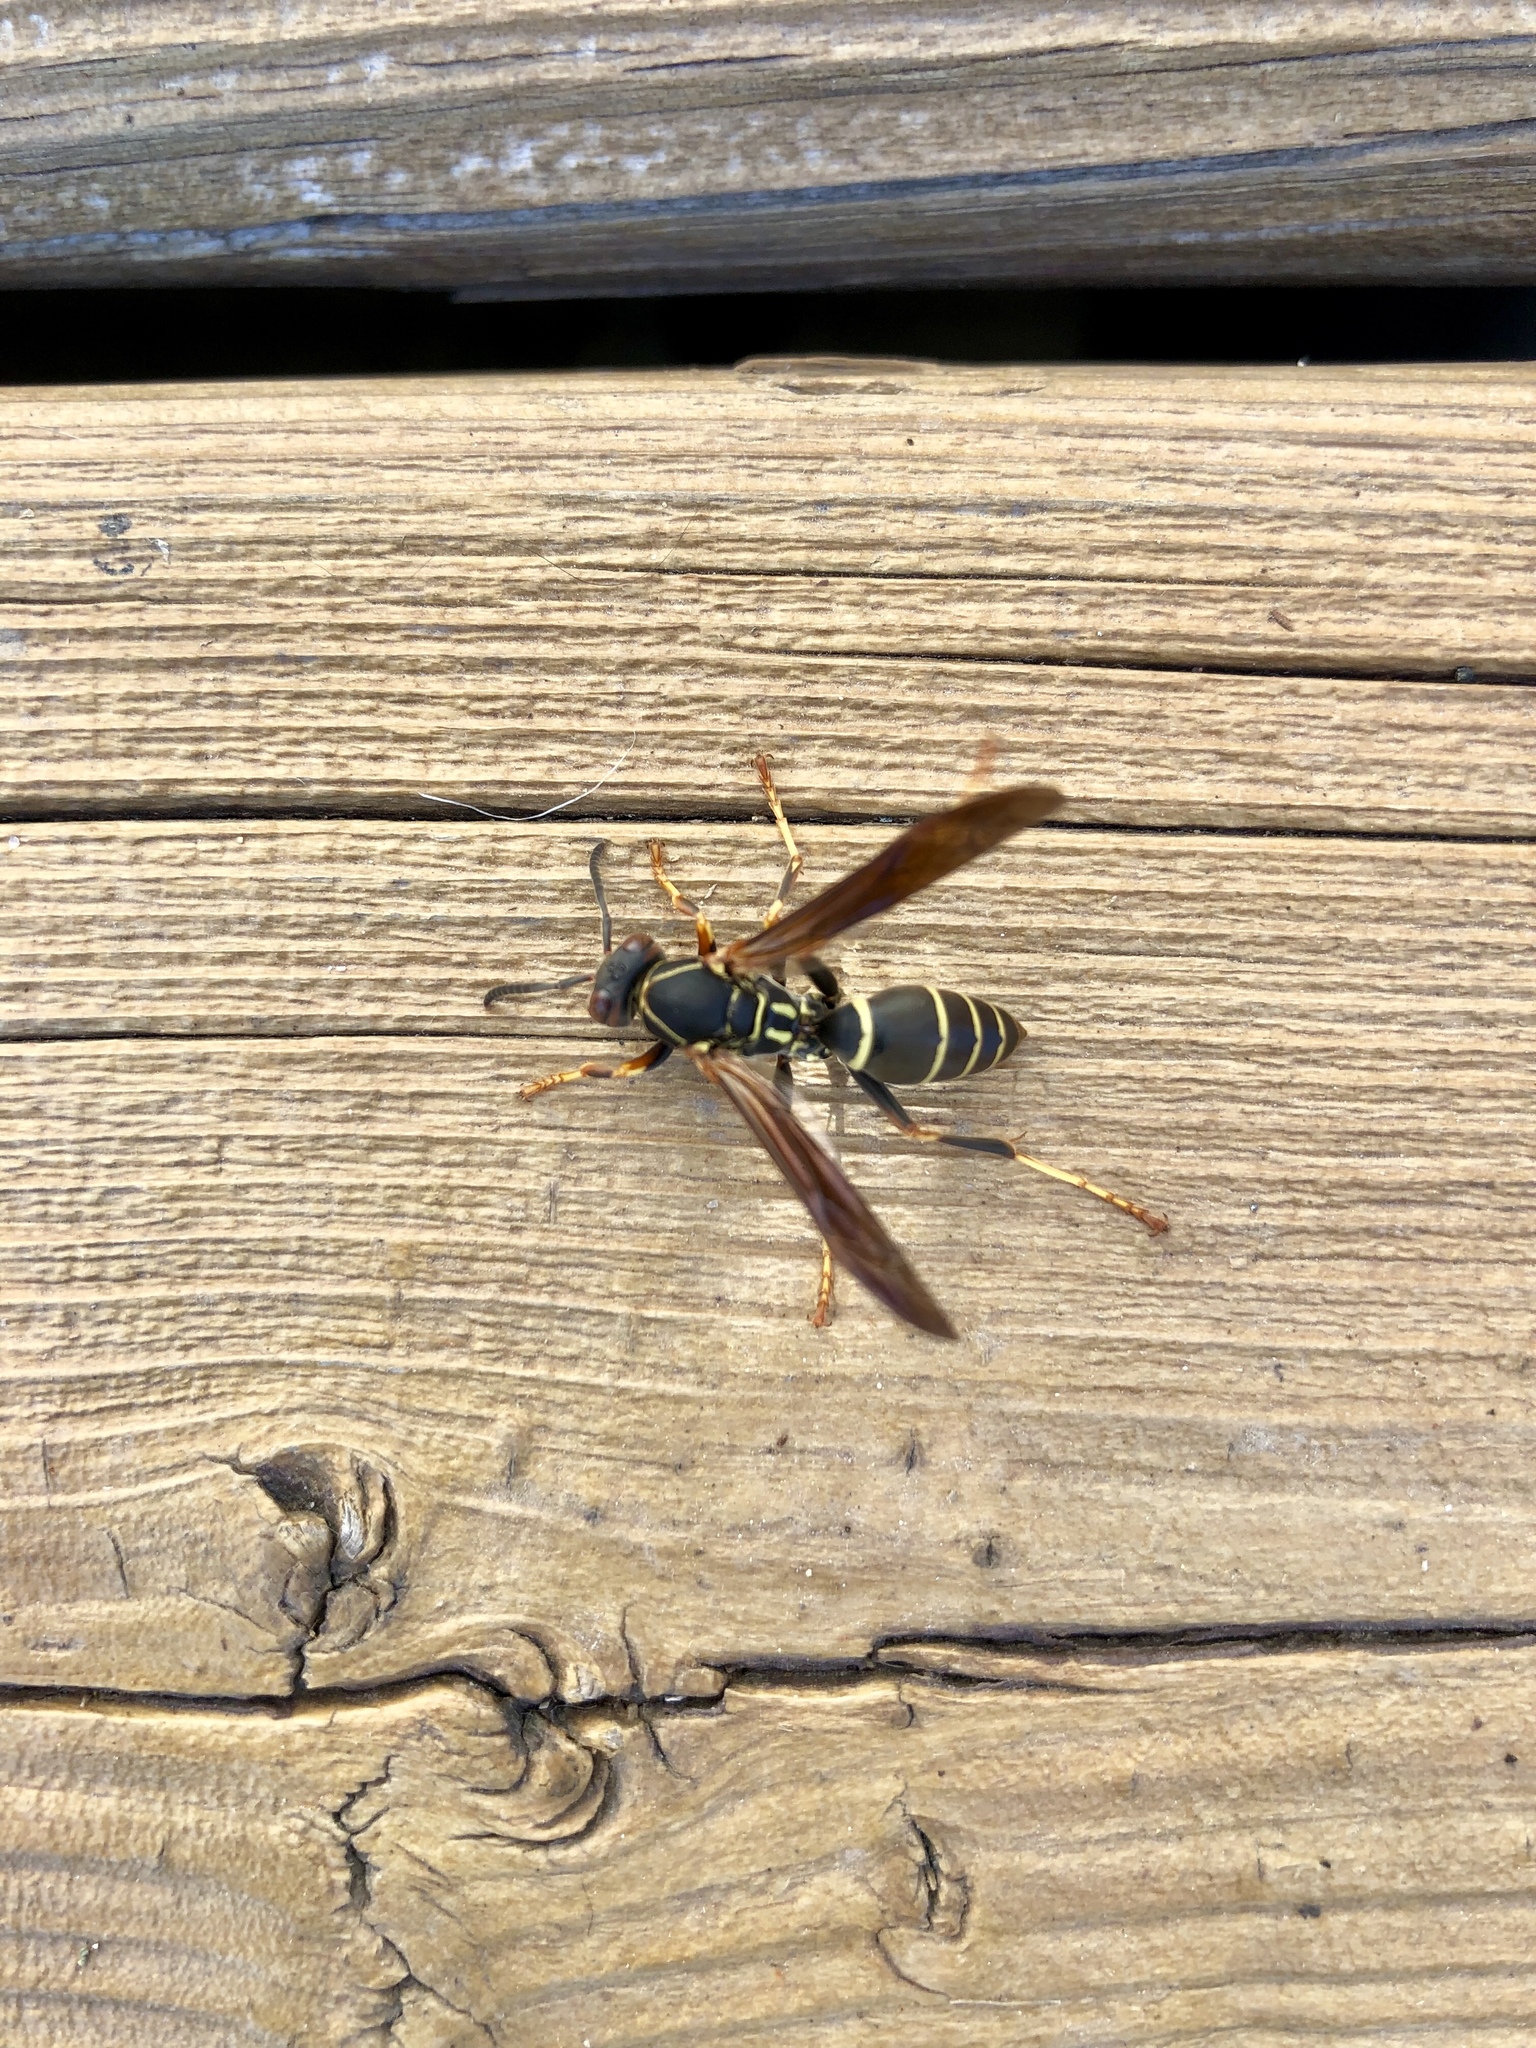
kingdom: Animalia
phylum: Arthropoda
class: Insecta
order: Hymenoptera
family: Eumenidae
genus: Polistes
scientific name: Polistes fuscatus
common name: Dark paper wasp
